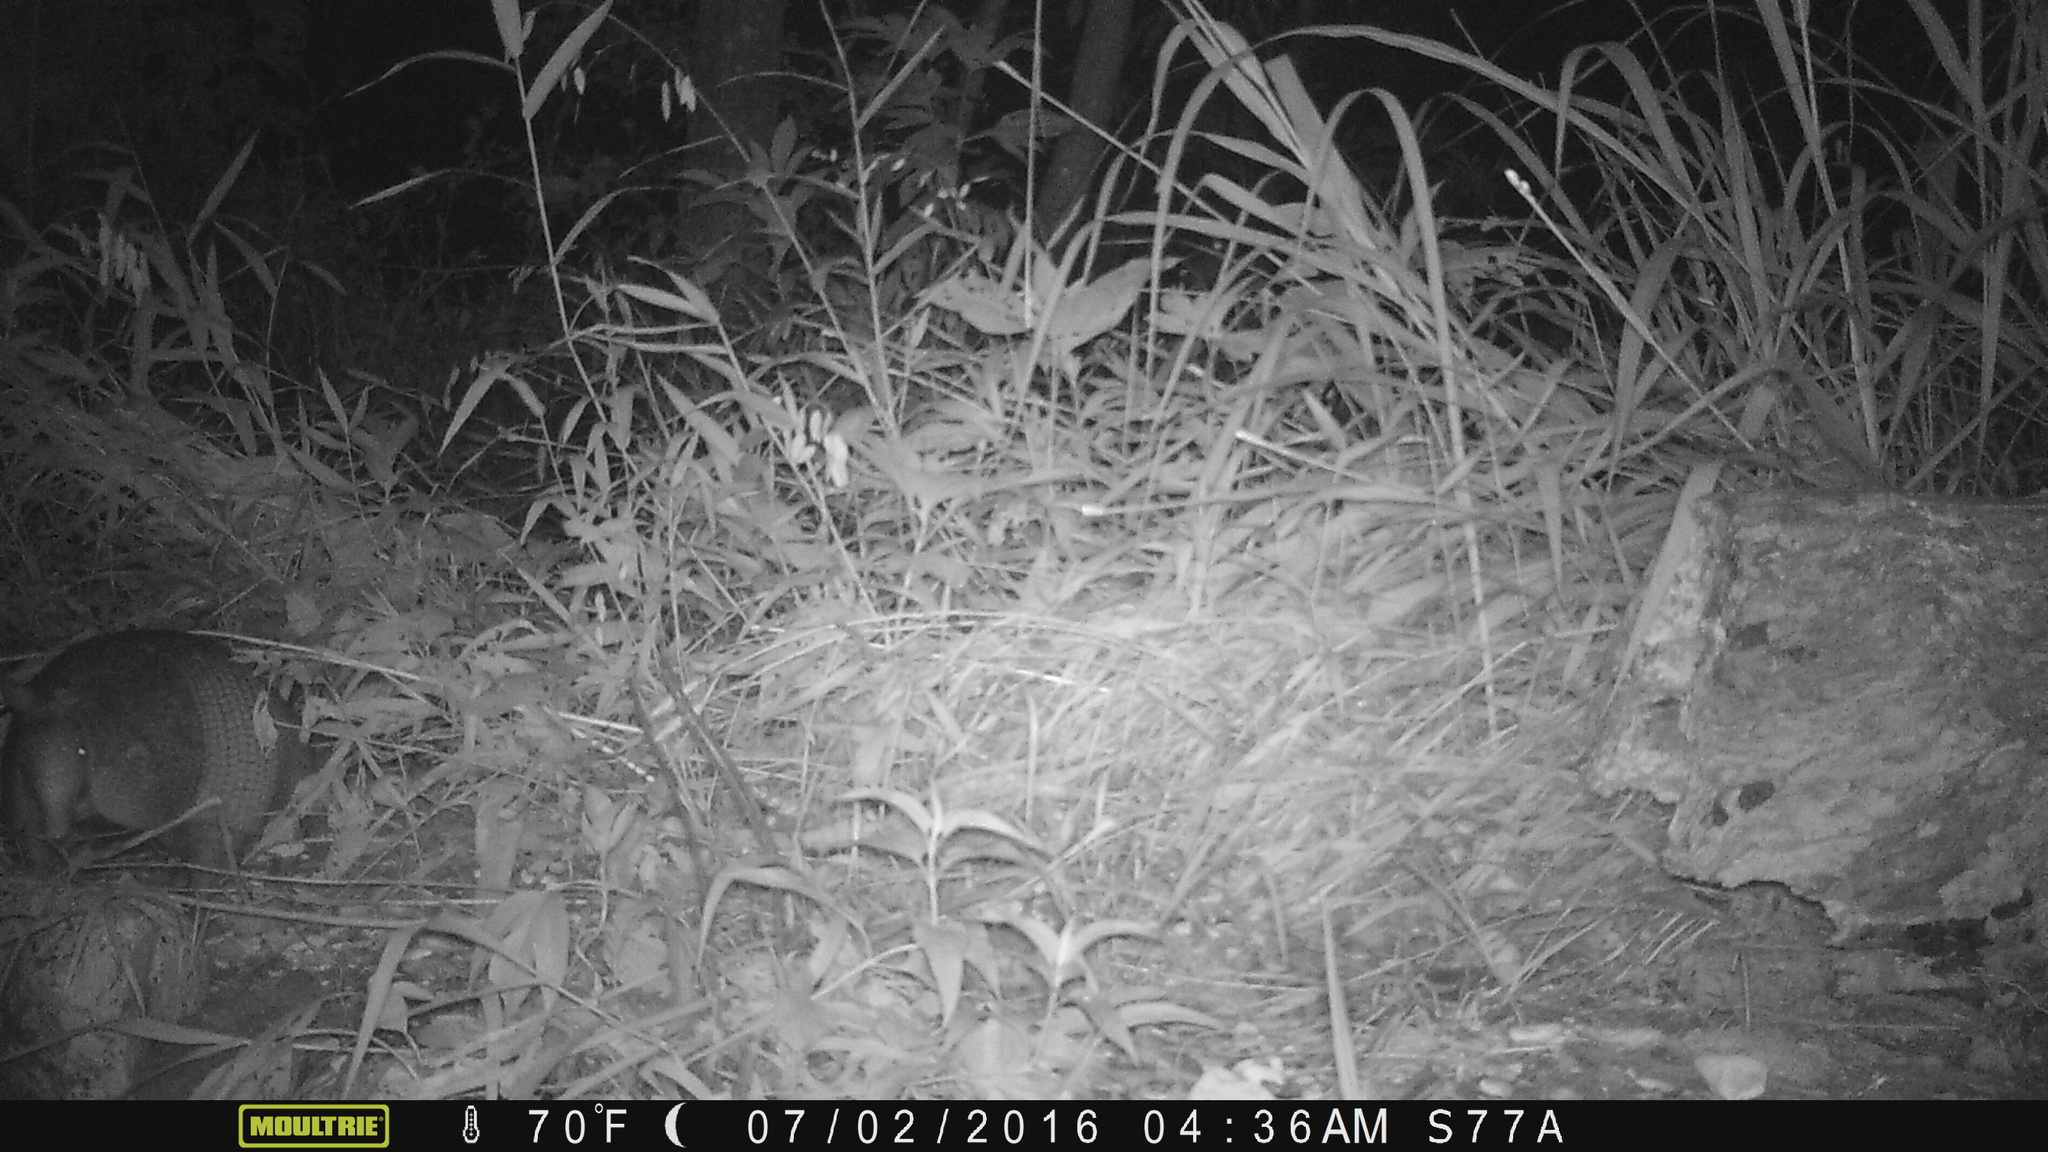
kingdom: Animalia
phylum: Chordata
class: Mammalia
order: Cingulata
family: Dasypodidae
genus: Dasypus
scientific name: Dasypus novemcinctus
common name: Nine-banded armadillo
